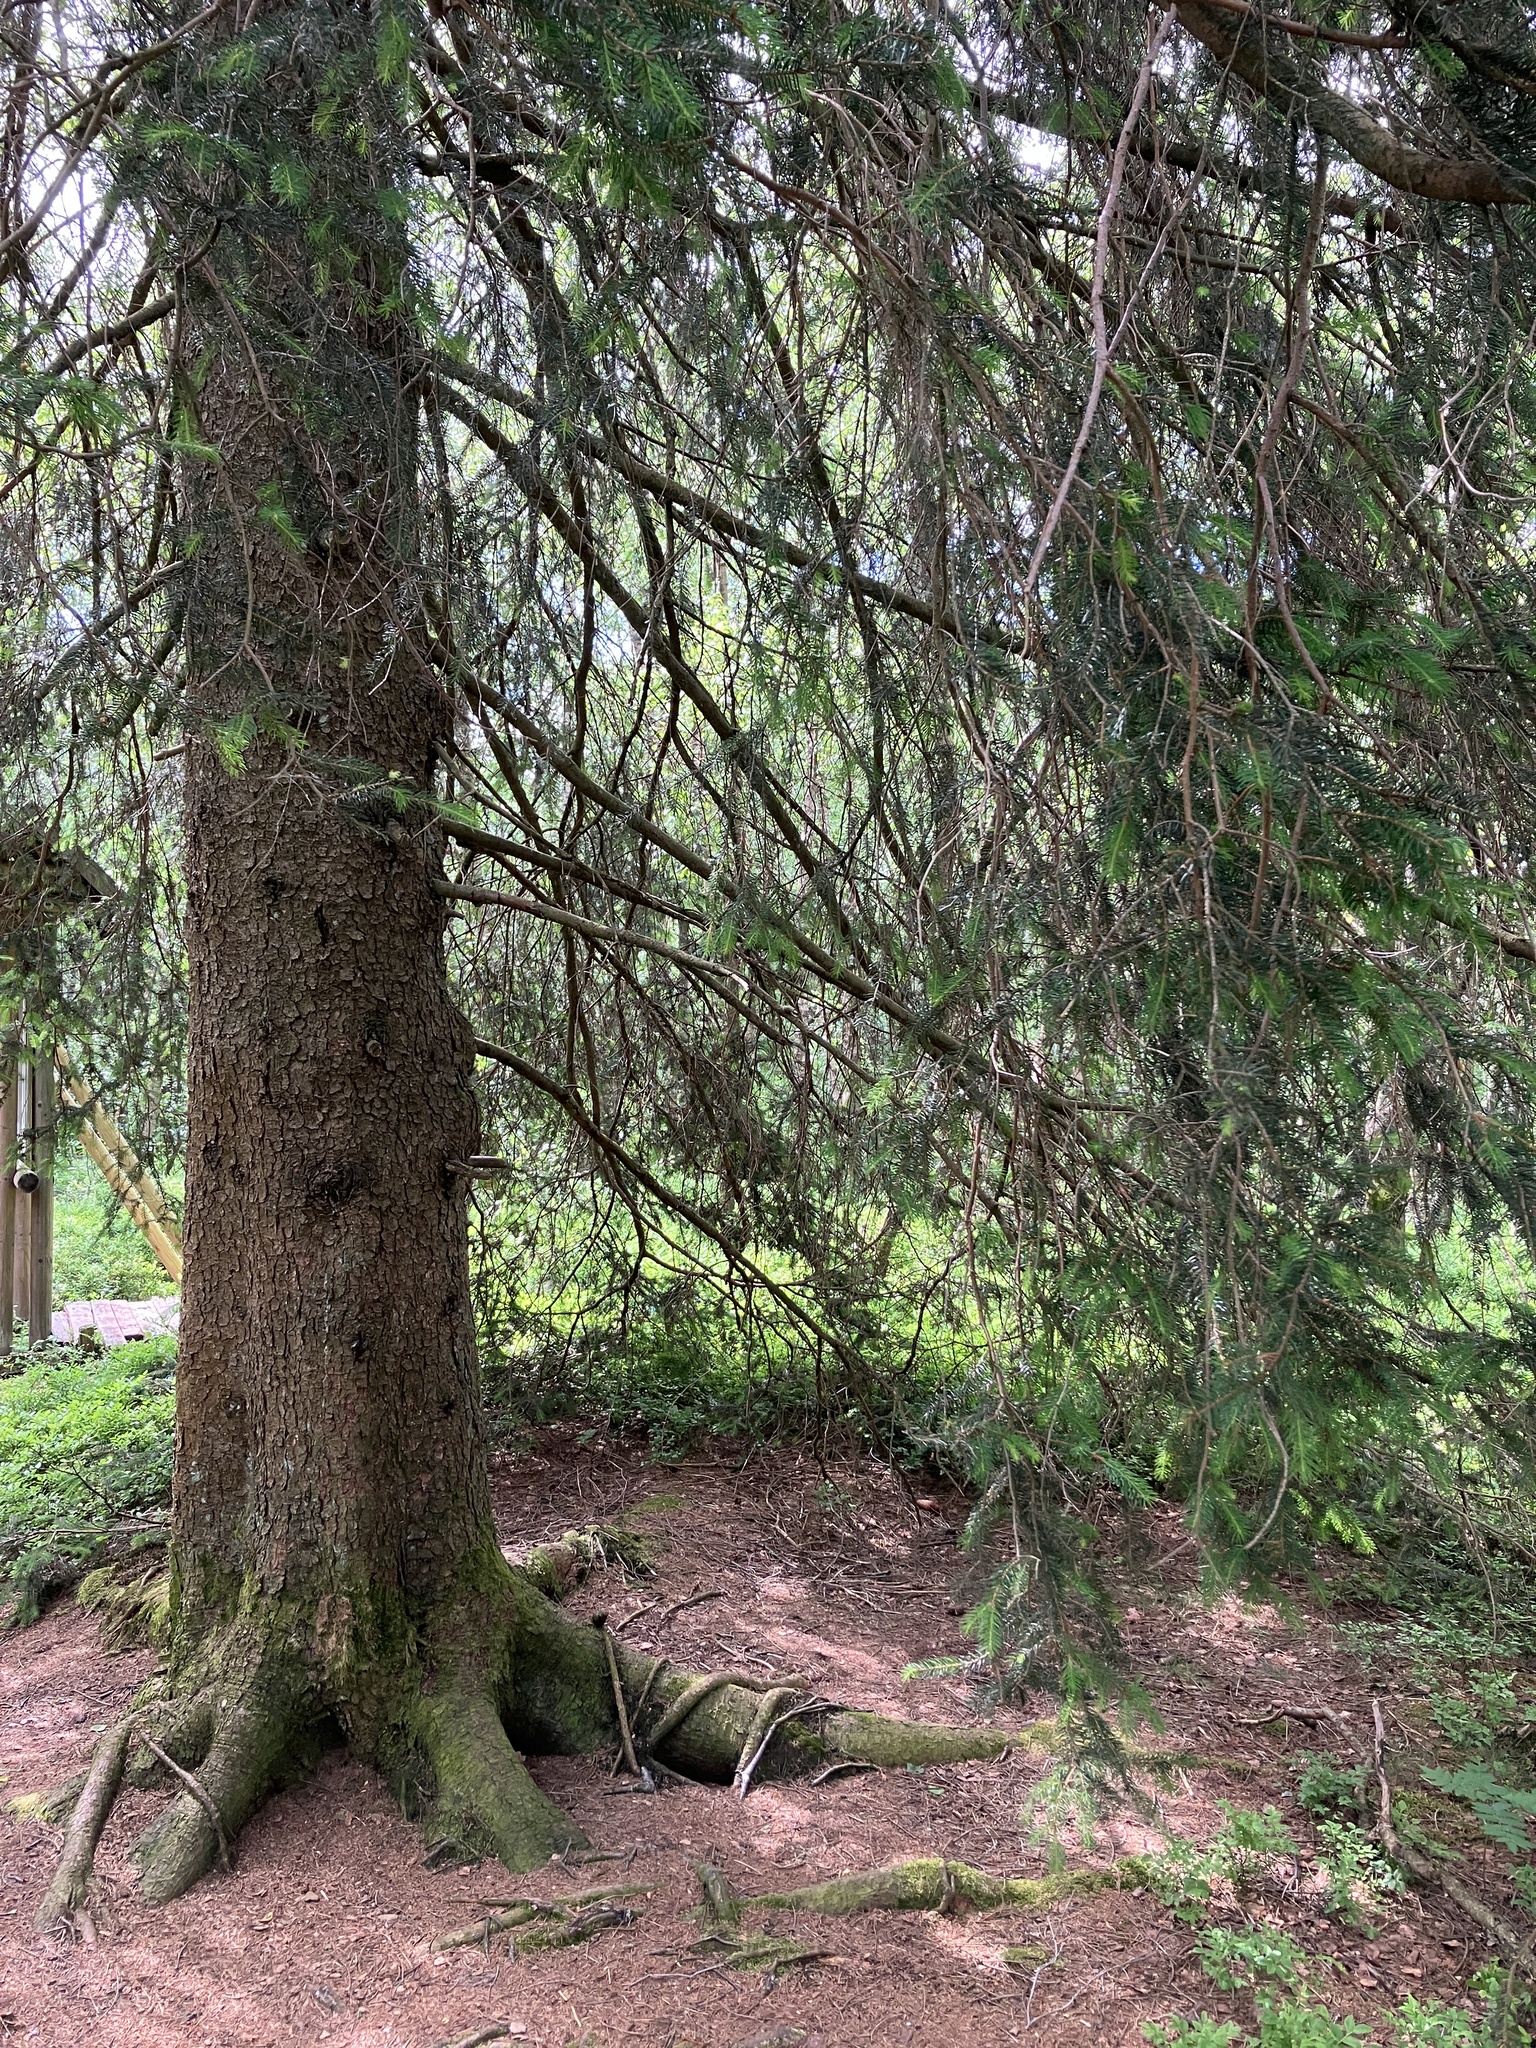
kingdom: Plantae
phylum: Tracheophyta
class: Pinopsida
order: Pinales
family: Pinaceae
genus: Picea
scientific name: Picea abies
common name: Norway spruce
